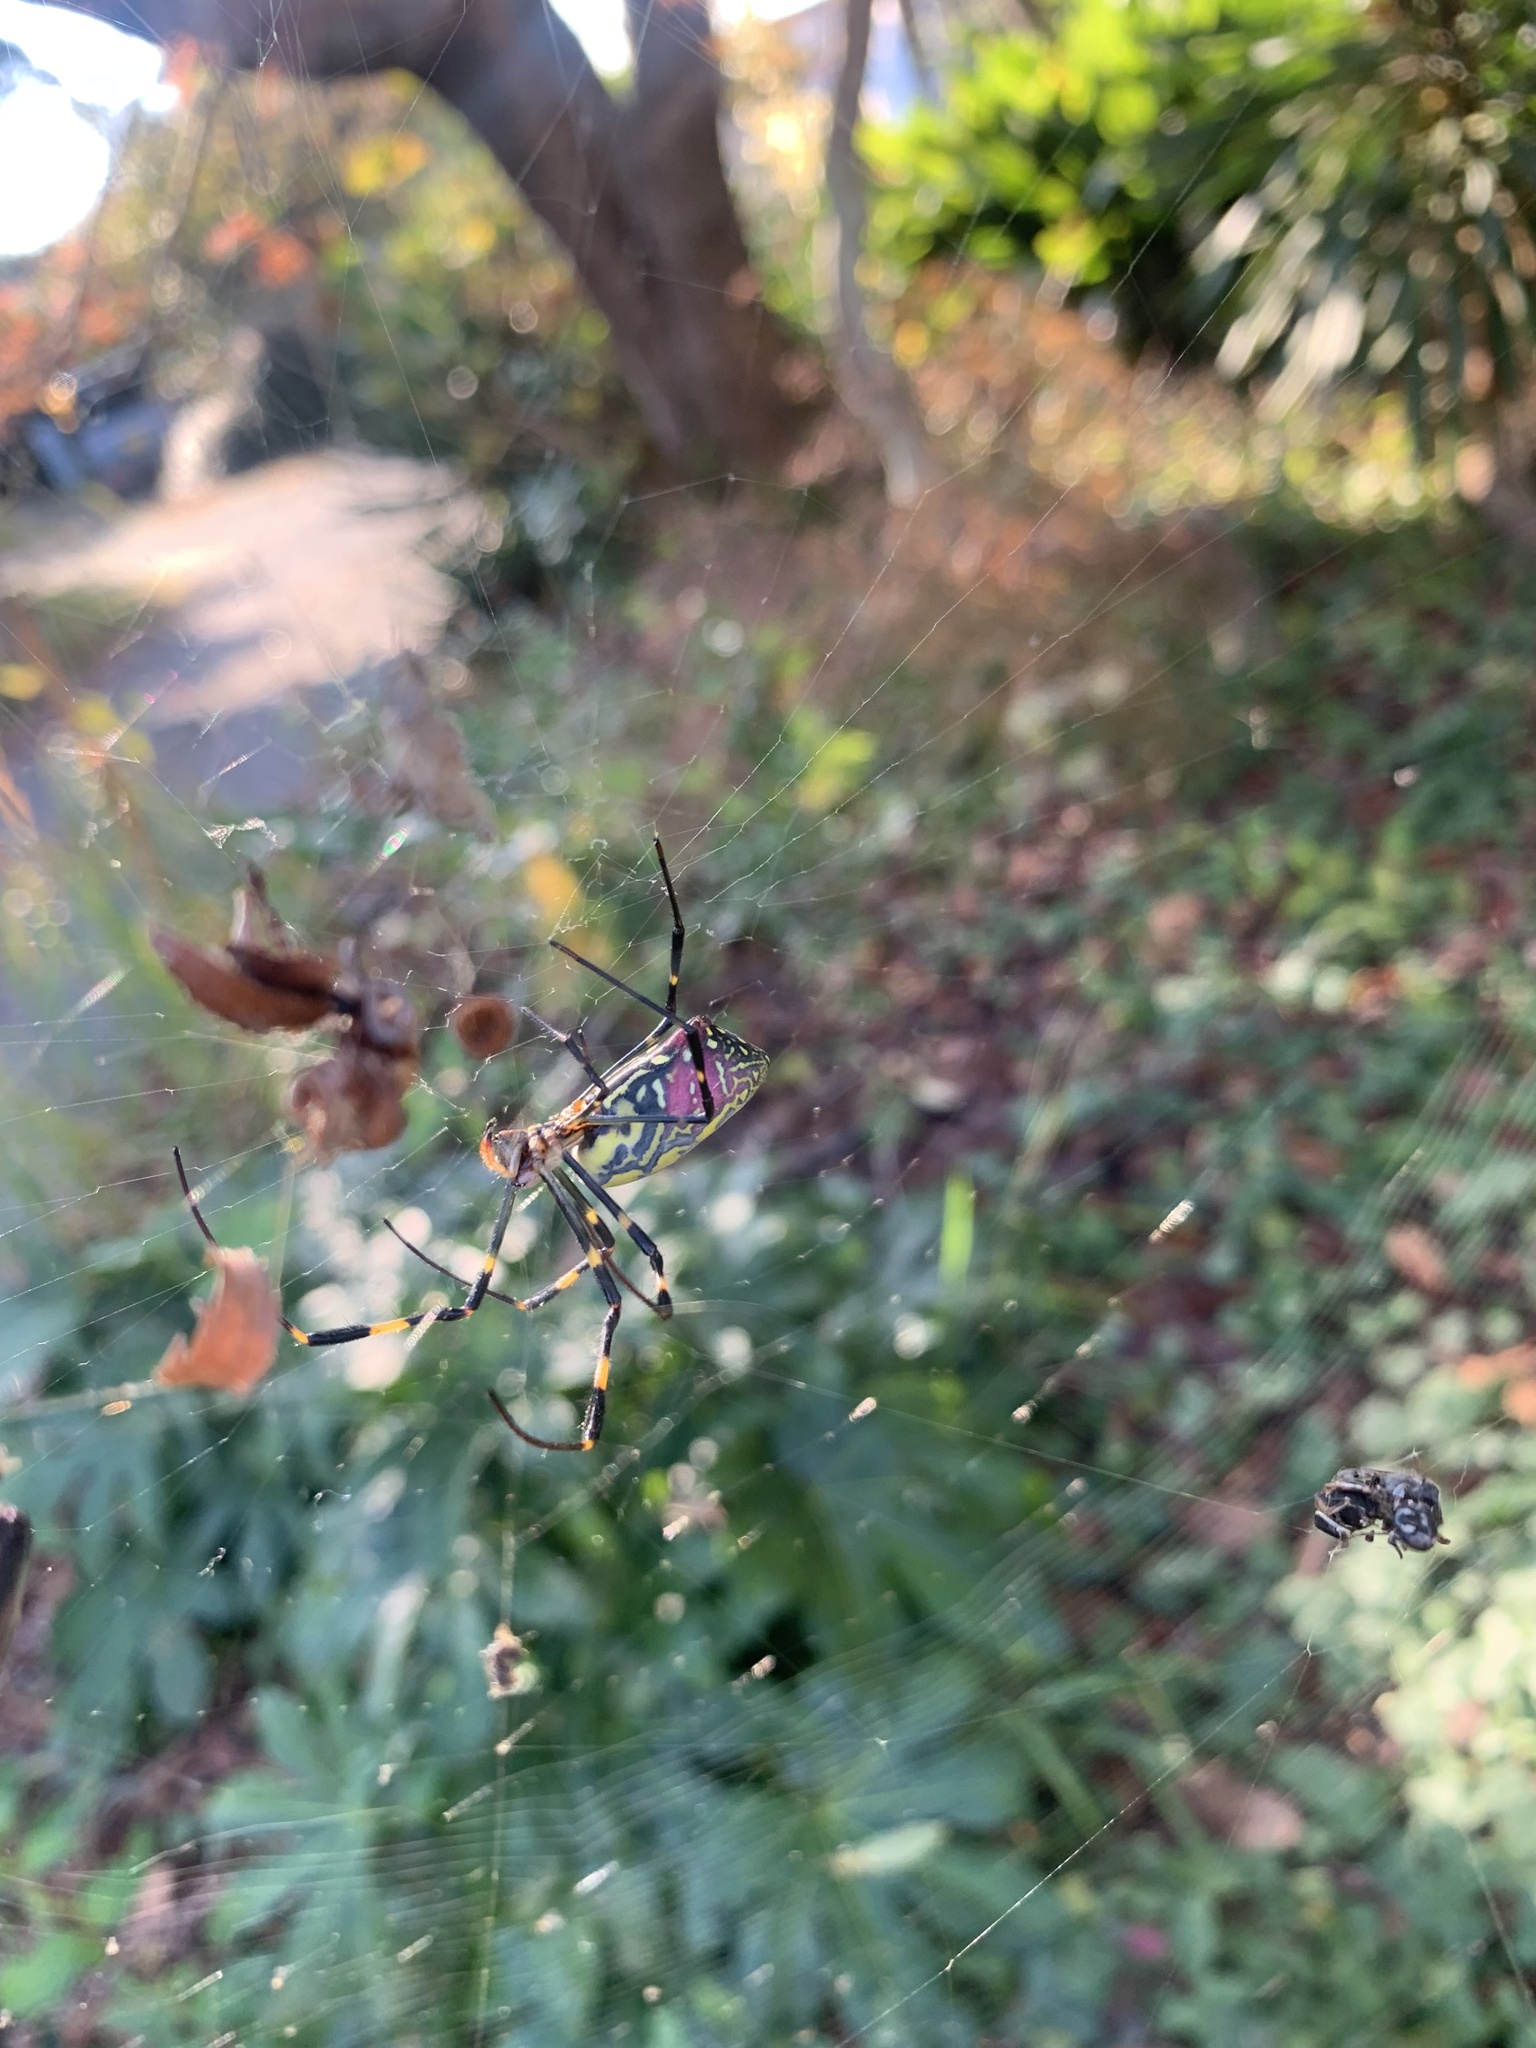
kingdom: Animalia
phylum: Arthropoda
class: Arachnida
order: Araneae
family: Araneidae
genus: Trichonephila
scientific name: Trichonephila clavata
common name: Jorō spider
